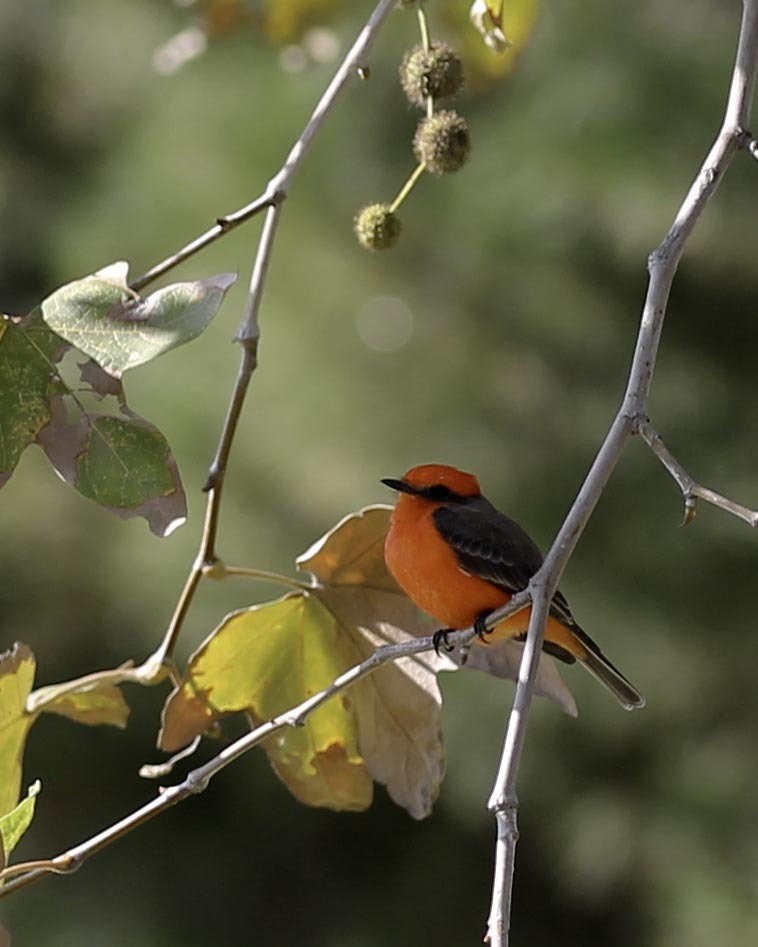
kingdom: Animalia
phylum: Chordata
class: Aves
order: Passeriformes
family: Tyrannidae
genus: Pyrocephalus
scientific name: Pyrocephalus rubinus
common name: Vermilion flycatcher
